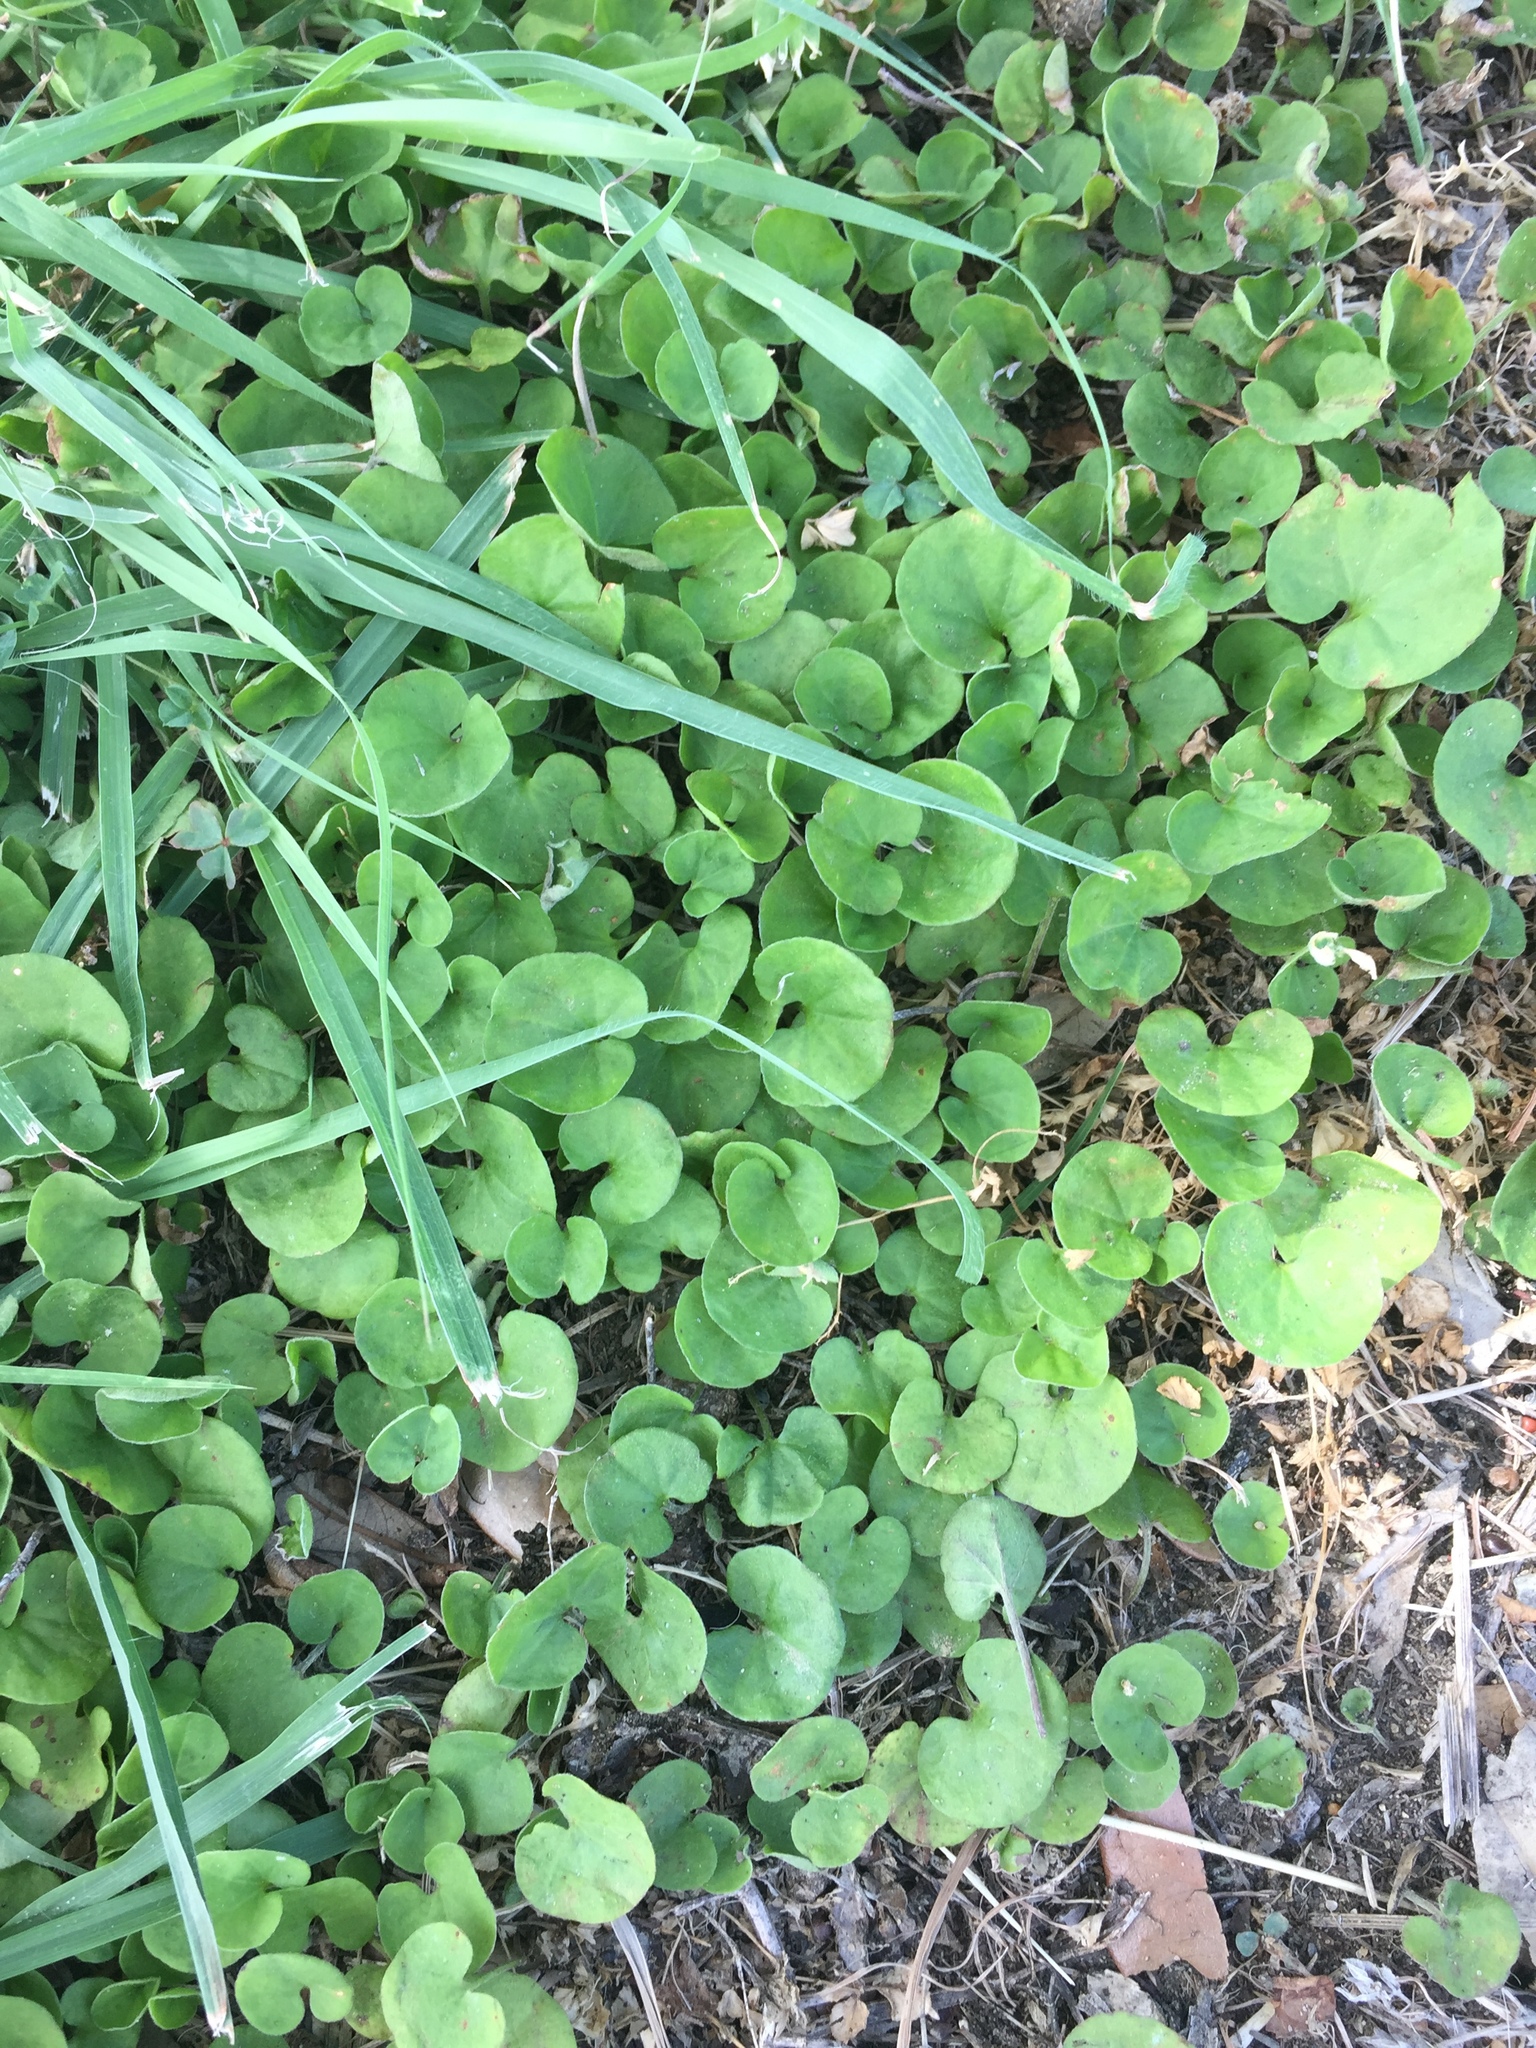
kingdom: Plantae
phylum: Tracheophyta
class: Magnoliopsida
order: Solanales
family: Convolvulaceae
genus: Dichondra
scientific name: Dichondra carolinensis
